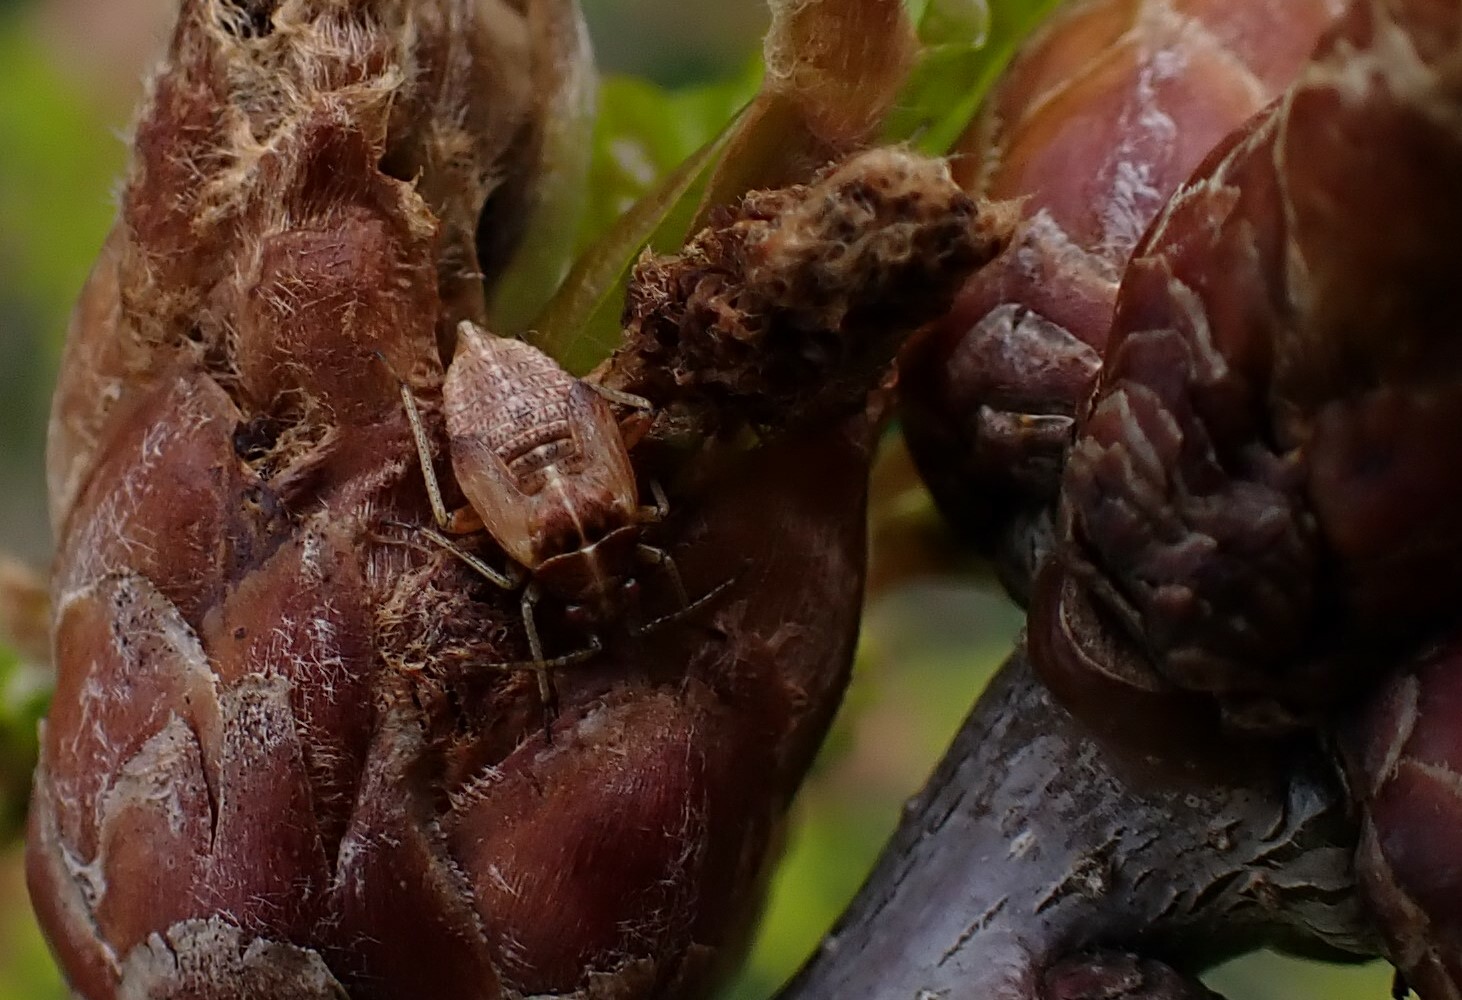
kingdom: Animalia
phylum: Arthropoda
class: Insecta
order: Hemiptera
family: Miridae
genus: Harpocera
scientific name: Harpocera thoracica
